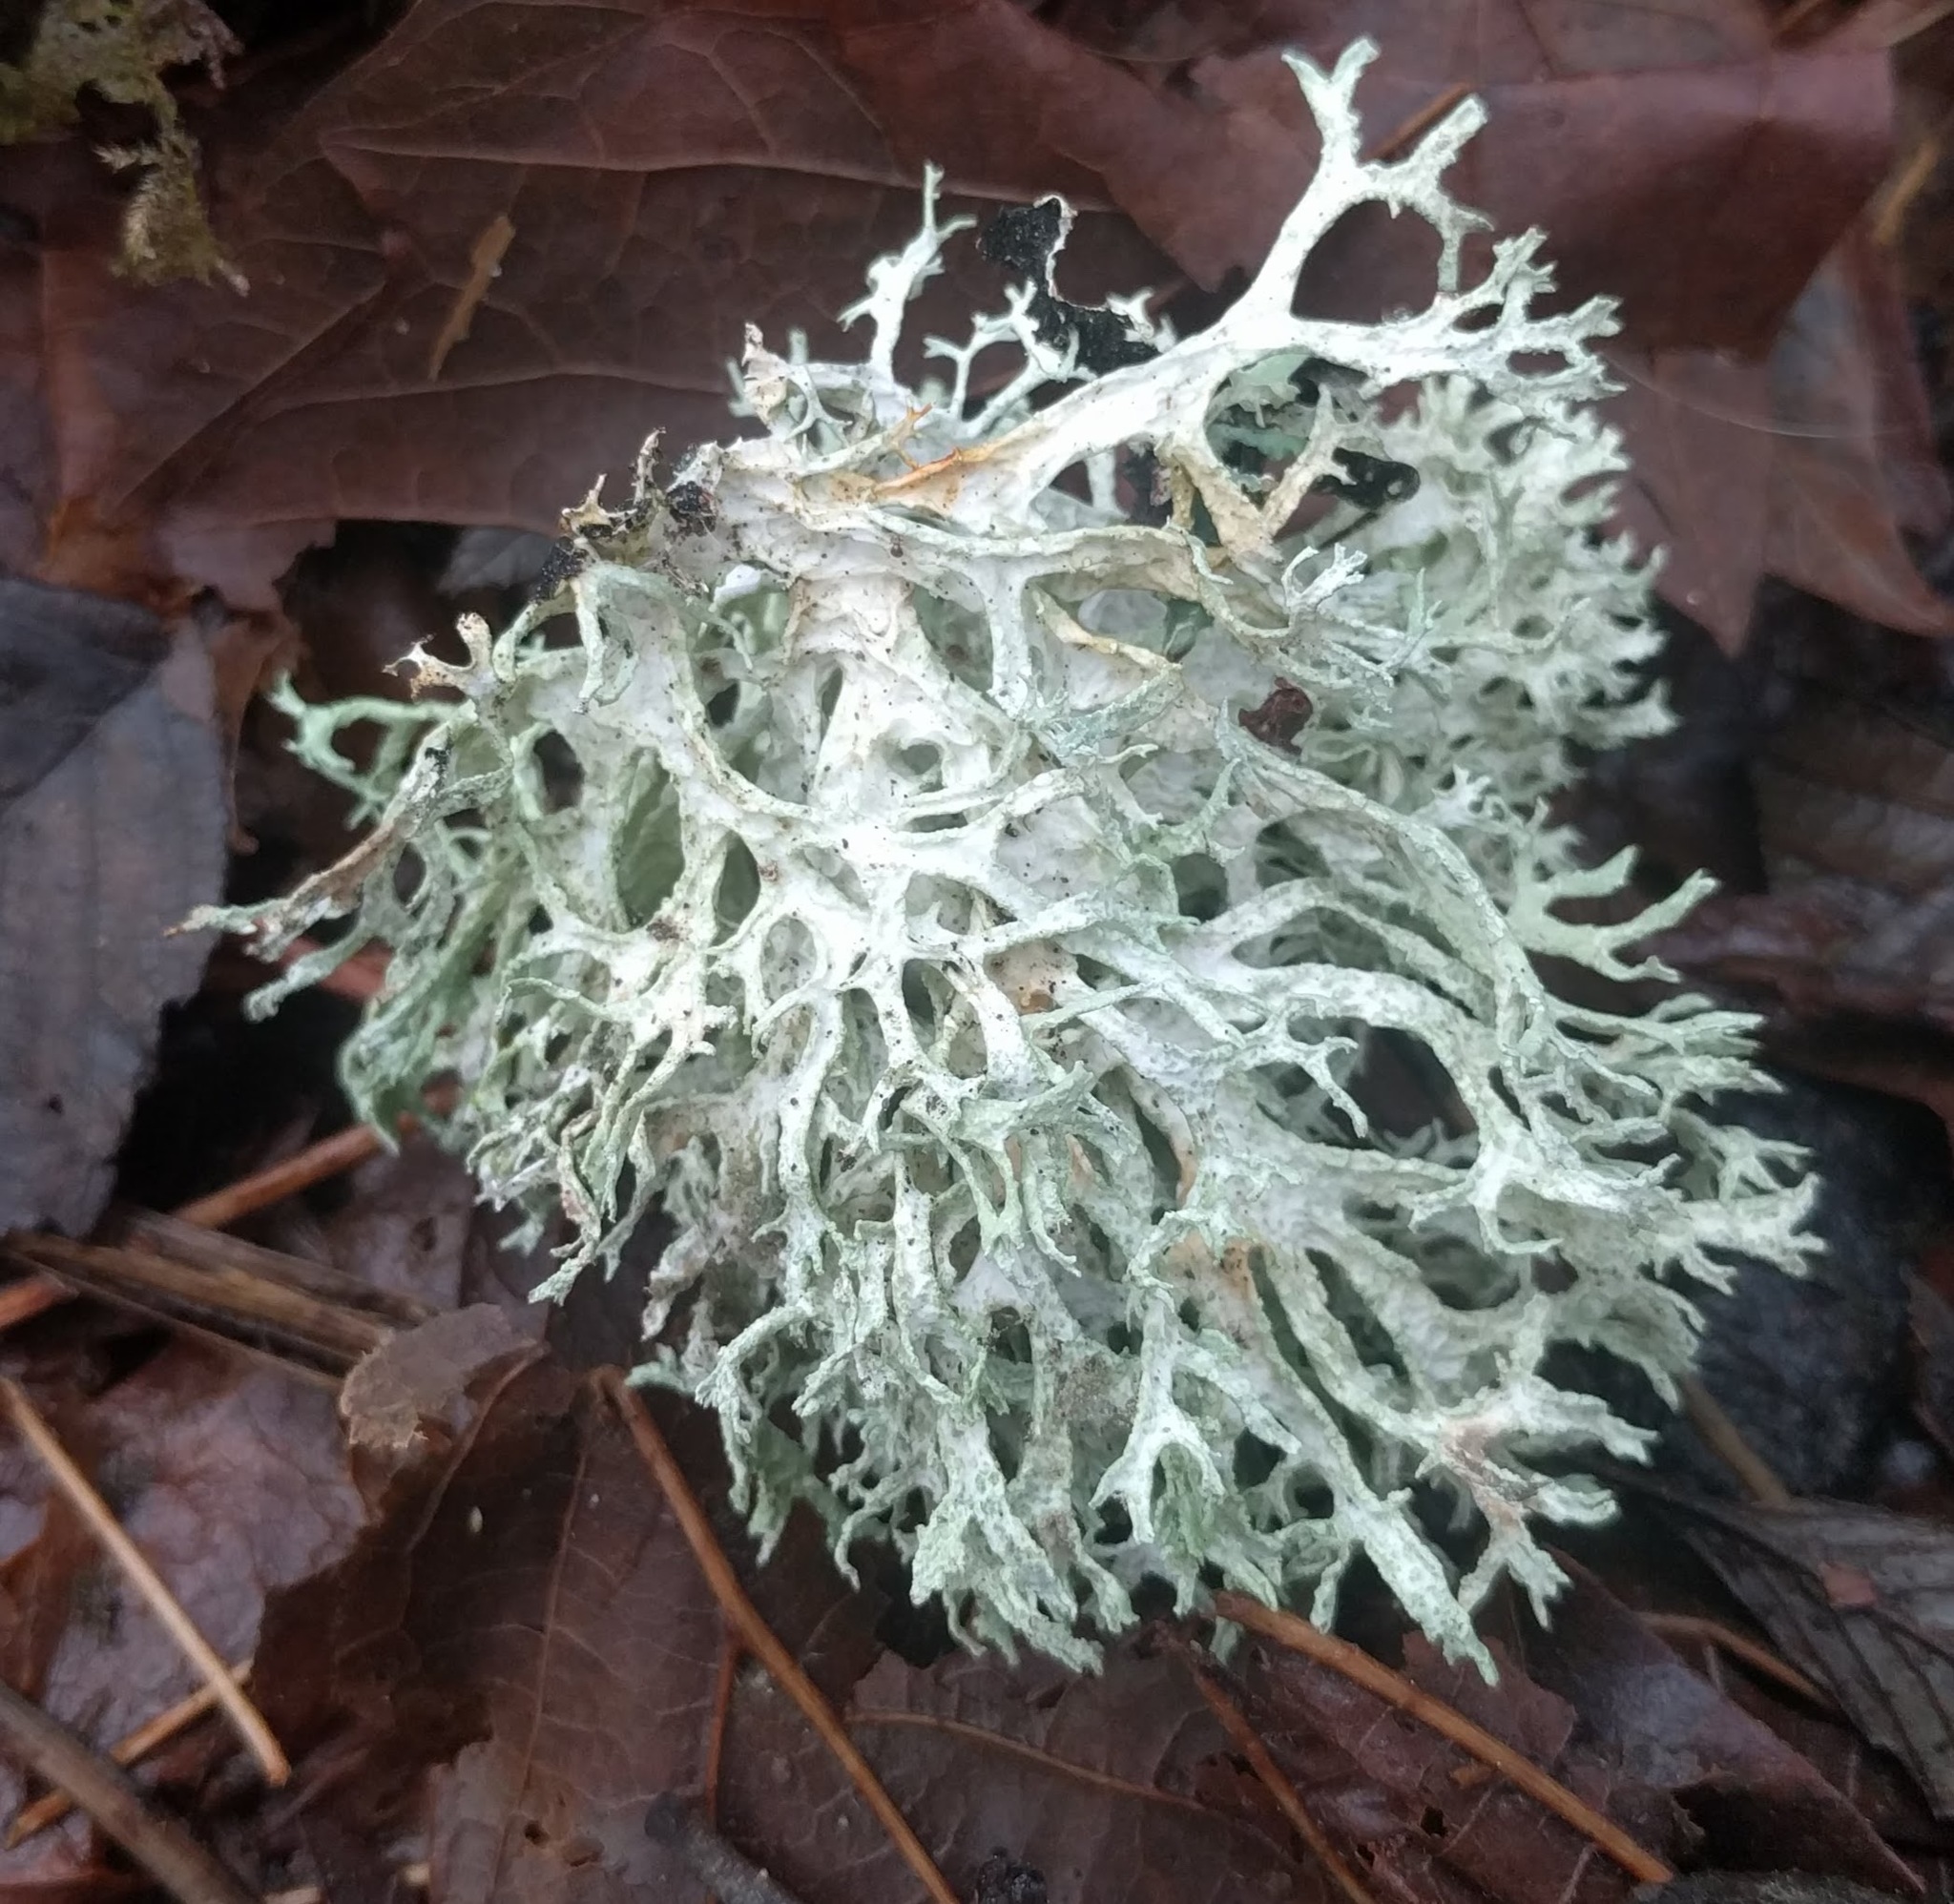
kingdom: Fungi
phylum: Ascomycota
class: Lecanoromycetes
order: Lecanorales
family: Parmeliaceae
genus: Evernia
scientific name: Evernia prunastri
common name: Oak moss
